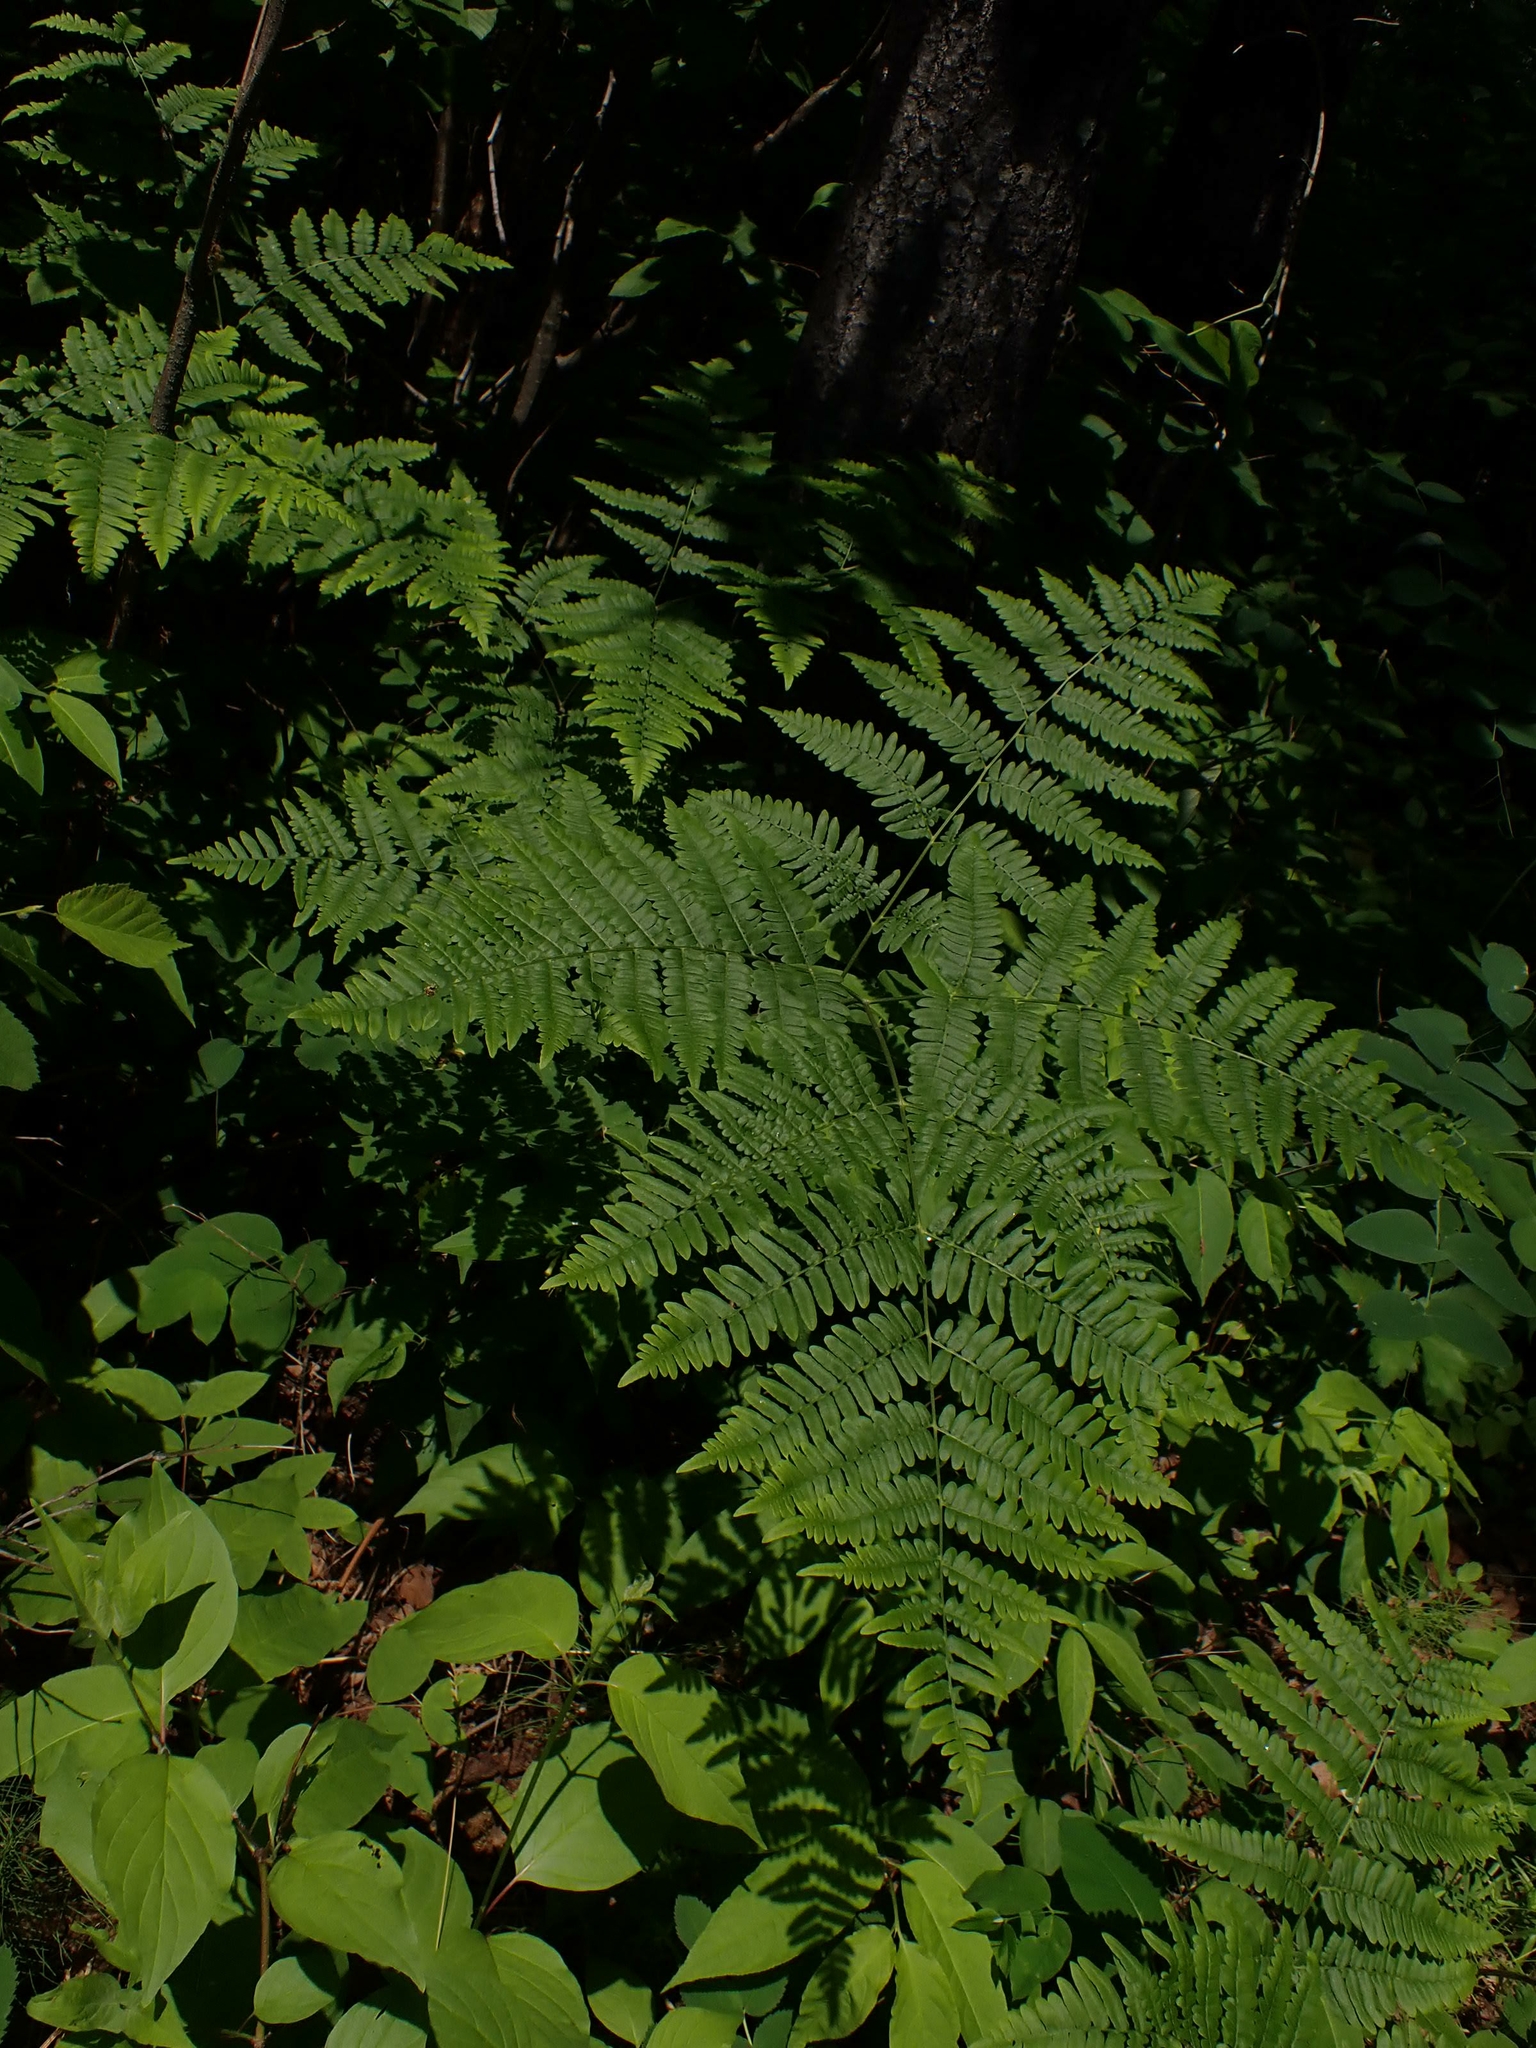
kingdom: Plantae
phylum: Tracheophyta
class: Polypodiopsida
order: Polypodiales
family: Dennstaedtiaceae
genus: Pteridium
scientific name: Pteridium aquilinum
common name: Bracken
